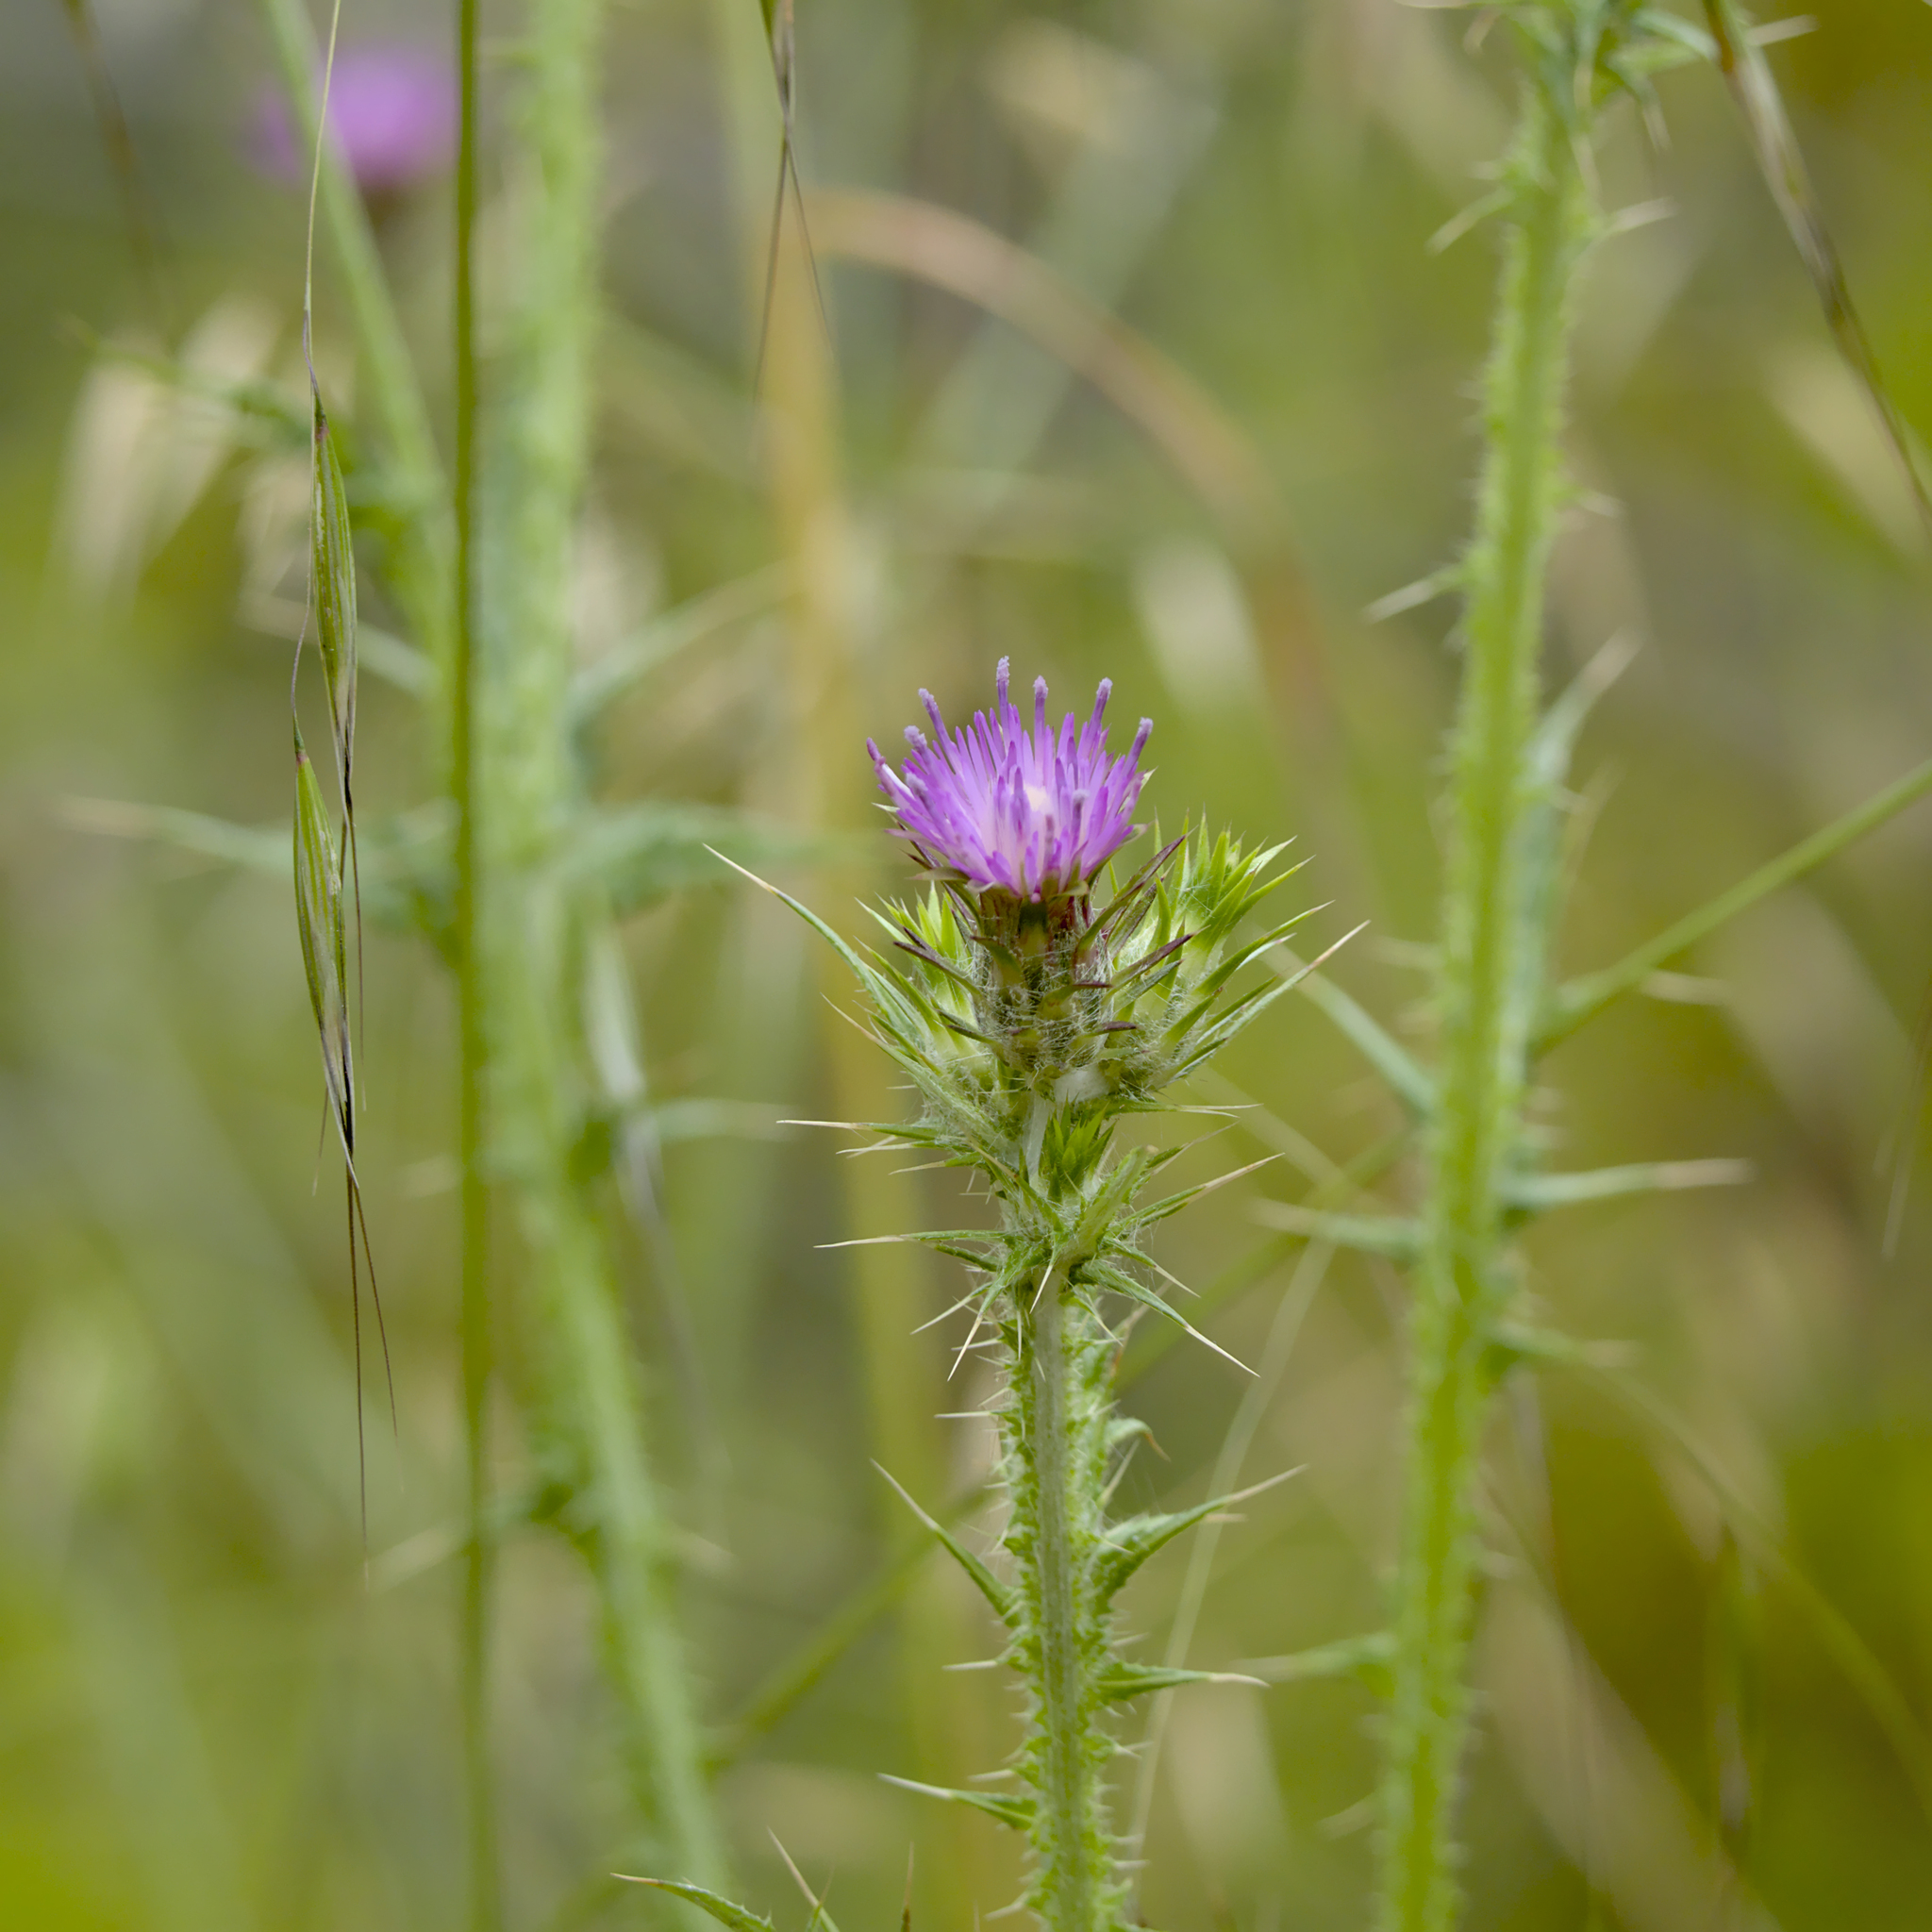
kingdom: Plantae
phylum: Tracheophyta
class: Magnoliopsida
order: Asterales
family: Asteraceae
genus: Carduus
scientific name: Carduus pycnocephalus
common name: Plymouth thistle
